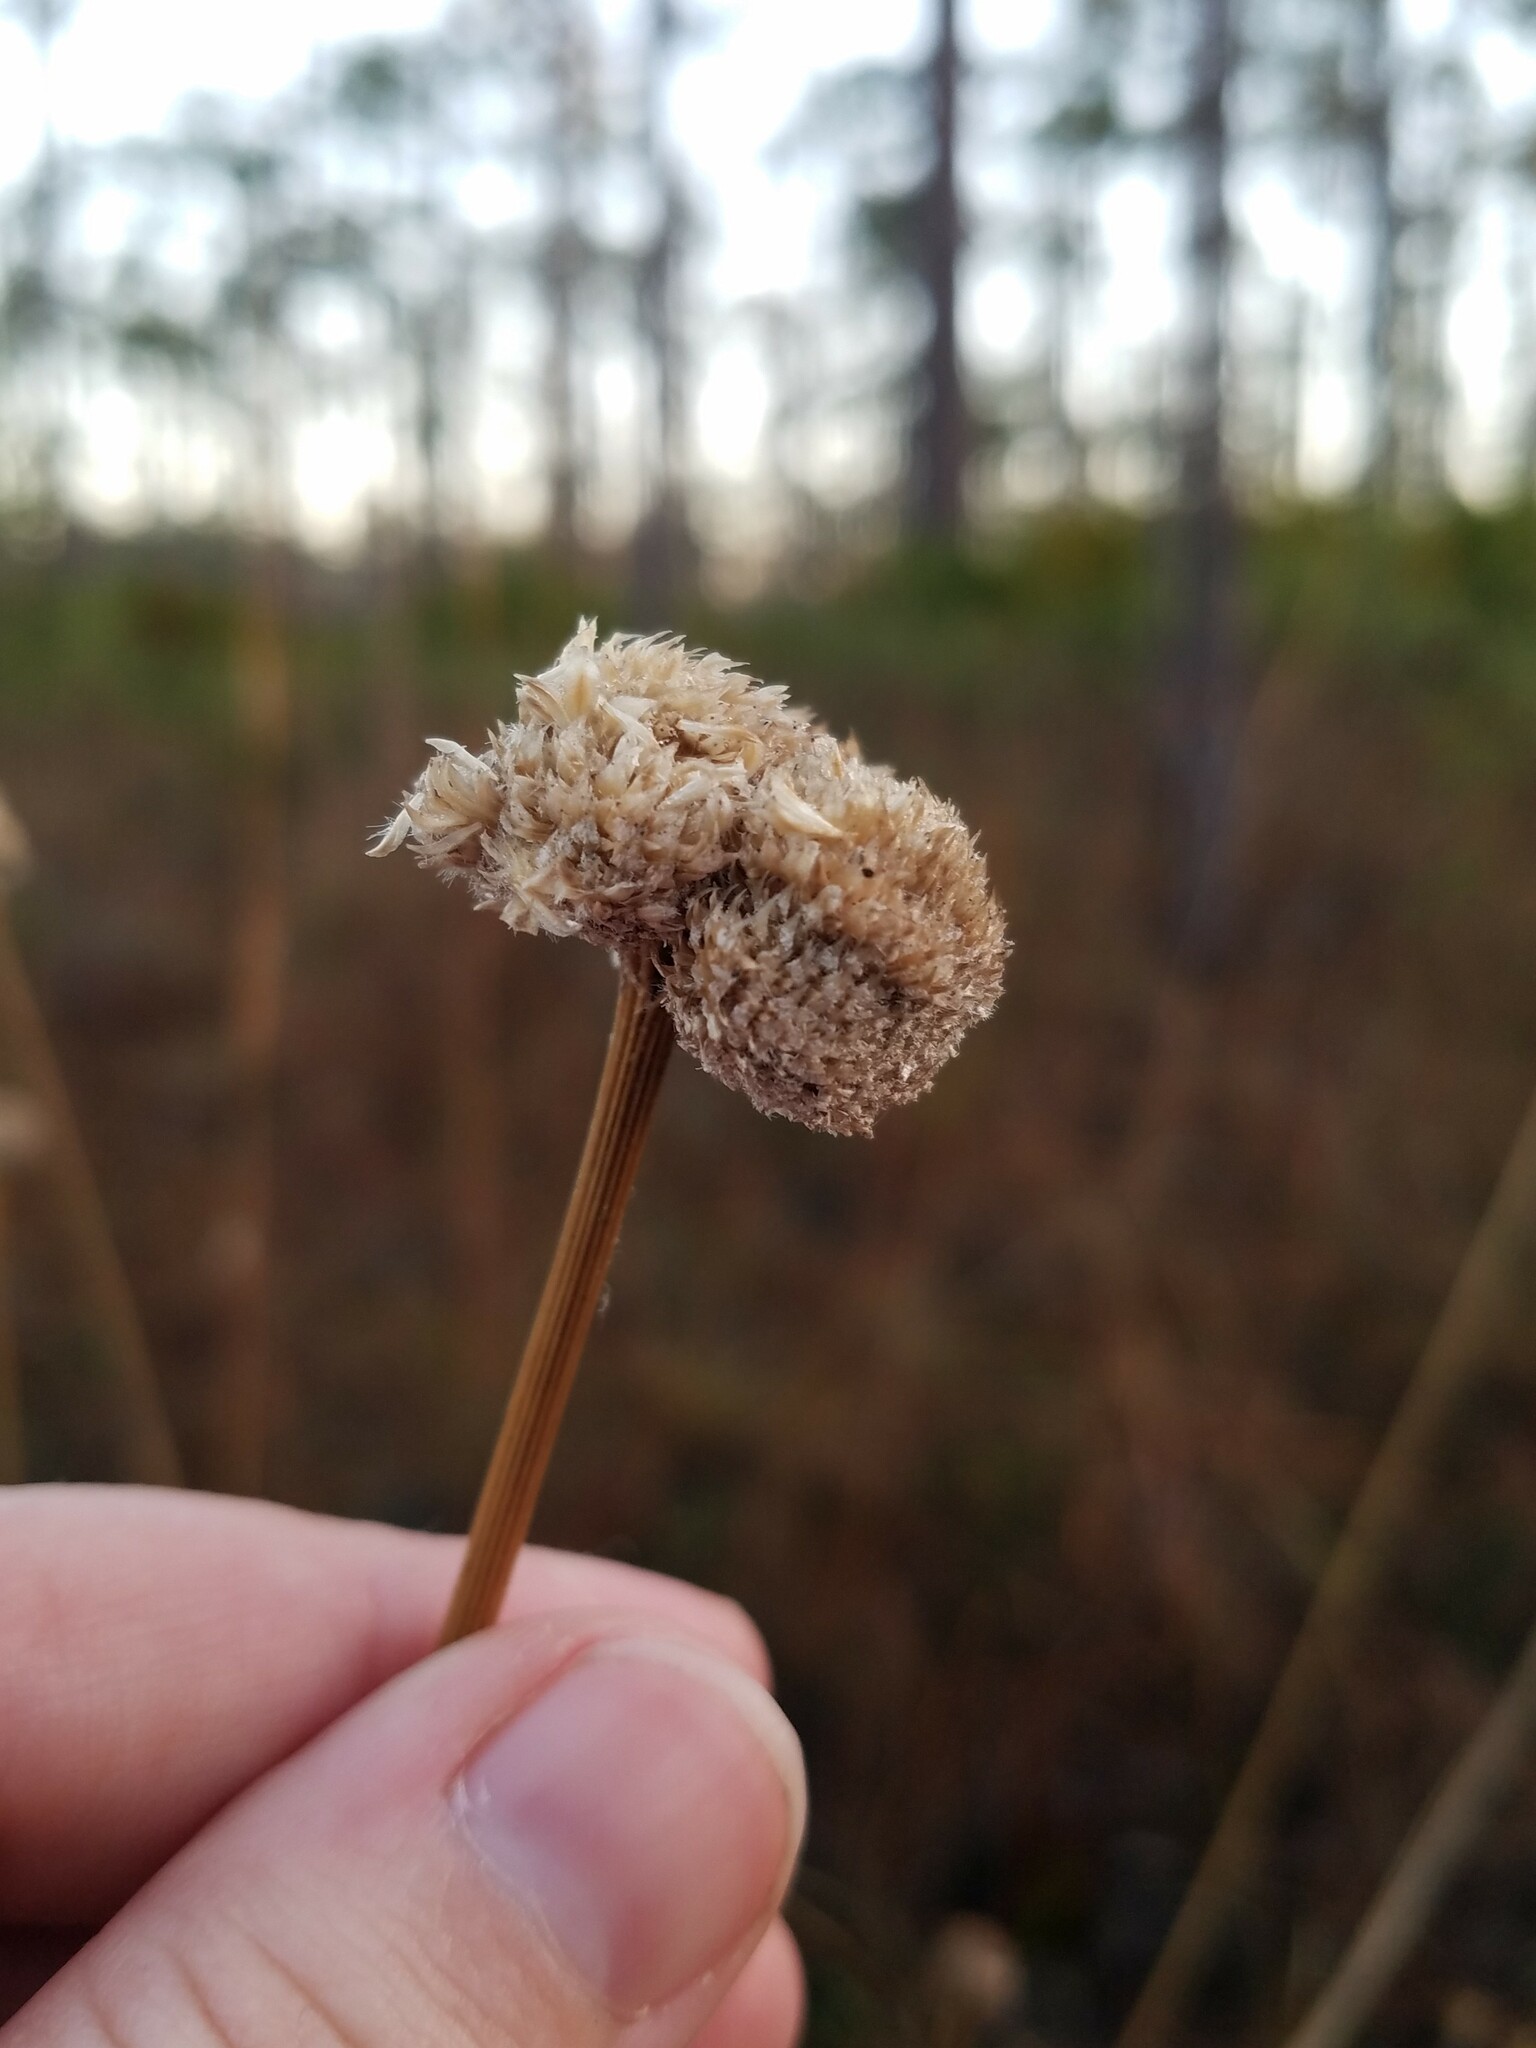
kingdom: Plantae
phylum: Tracheophyta
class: Liliopsida
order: Poales
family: Eriocaulaceae
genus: Eriocaulon
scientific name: Eriocaulon decangulare
